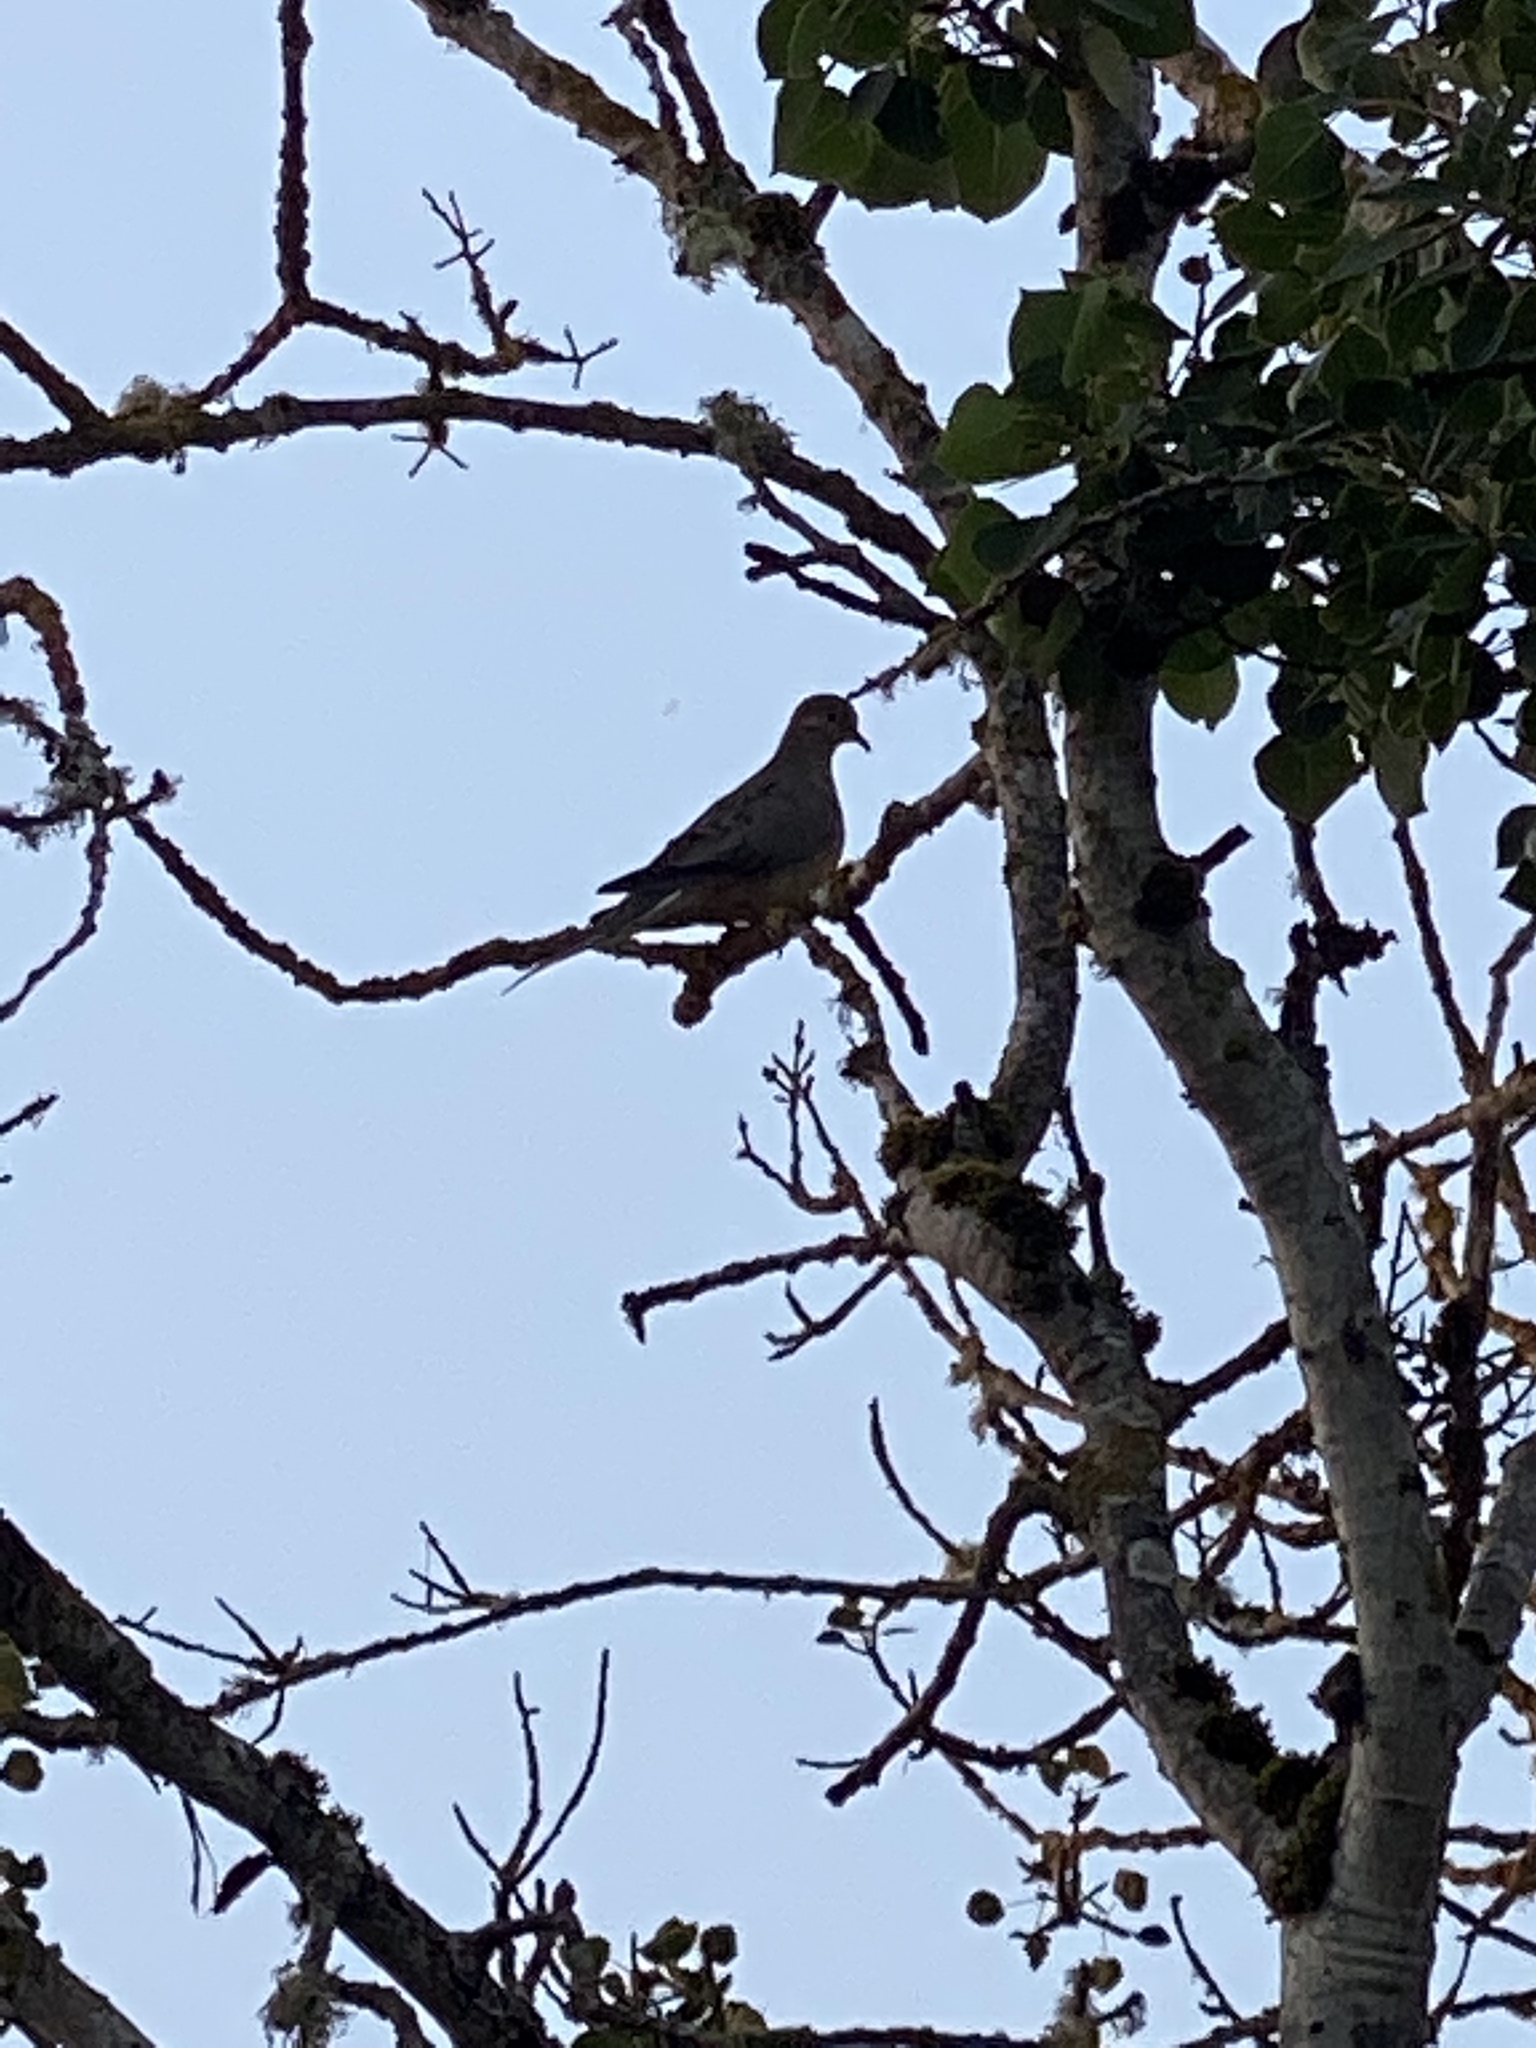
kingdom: Animalia
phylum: Chordata
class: Aves
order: Columbiformes
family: Columbidae
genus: Zenaida
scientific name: Zenaida macroura
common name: Mourning dove
